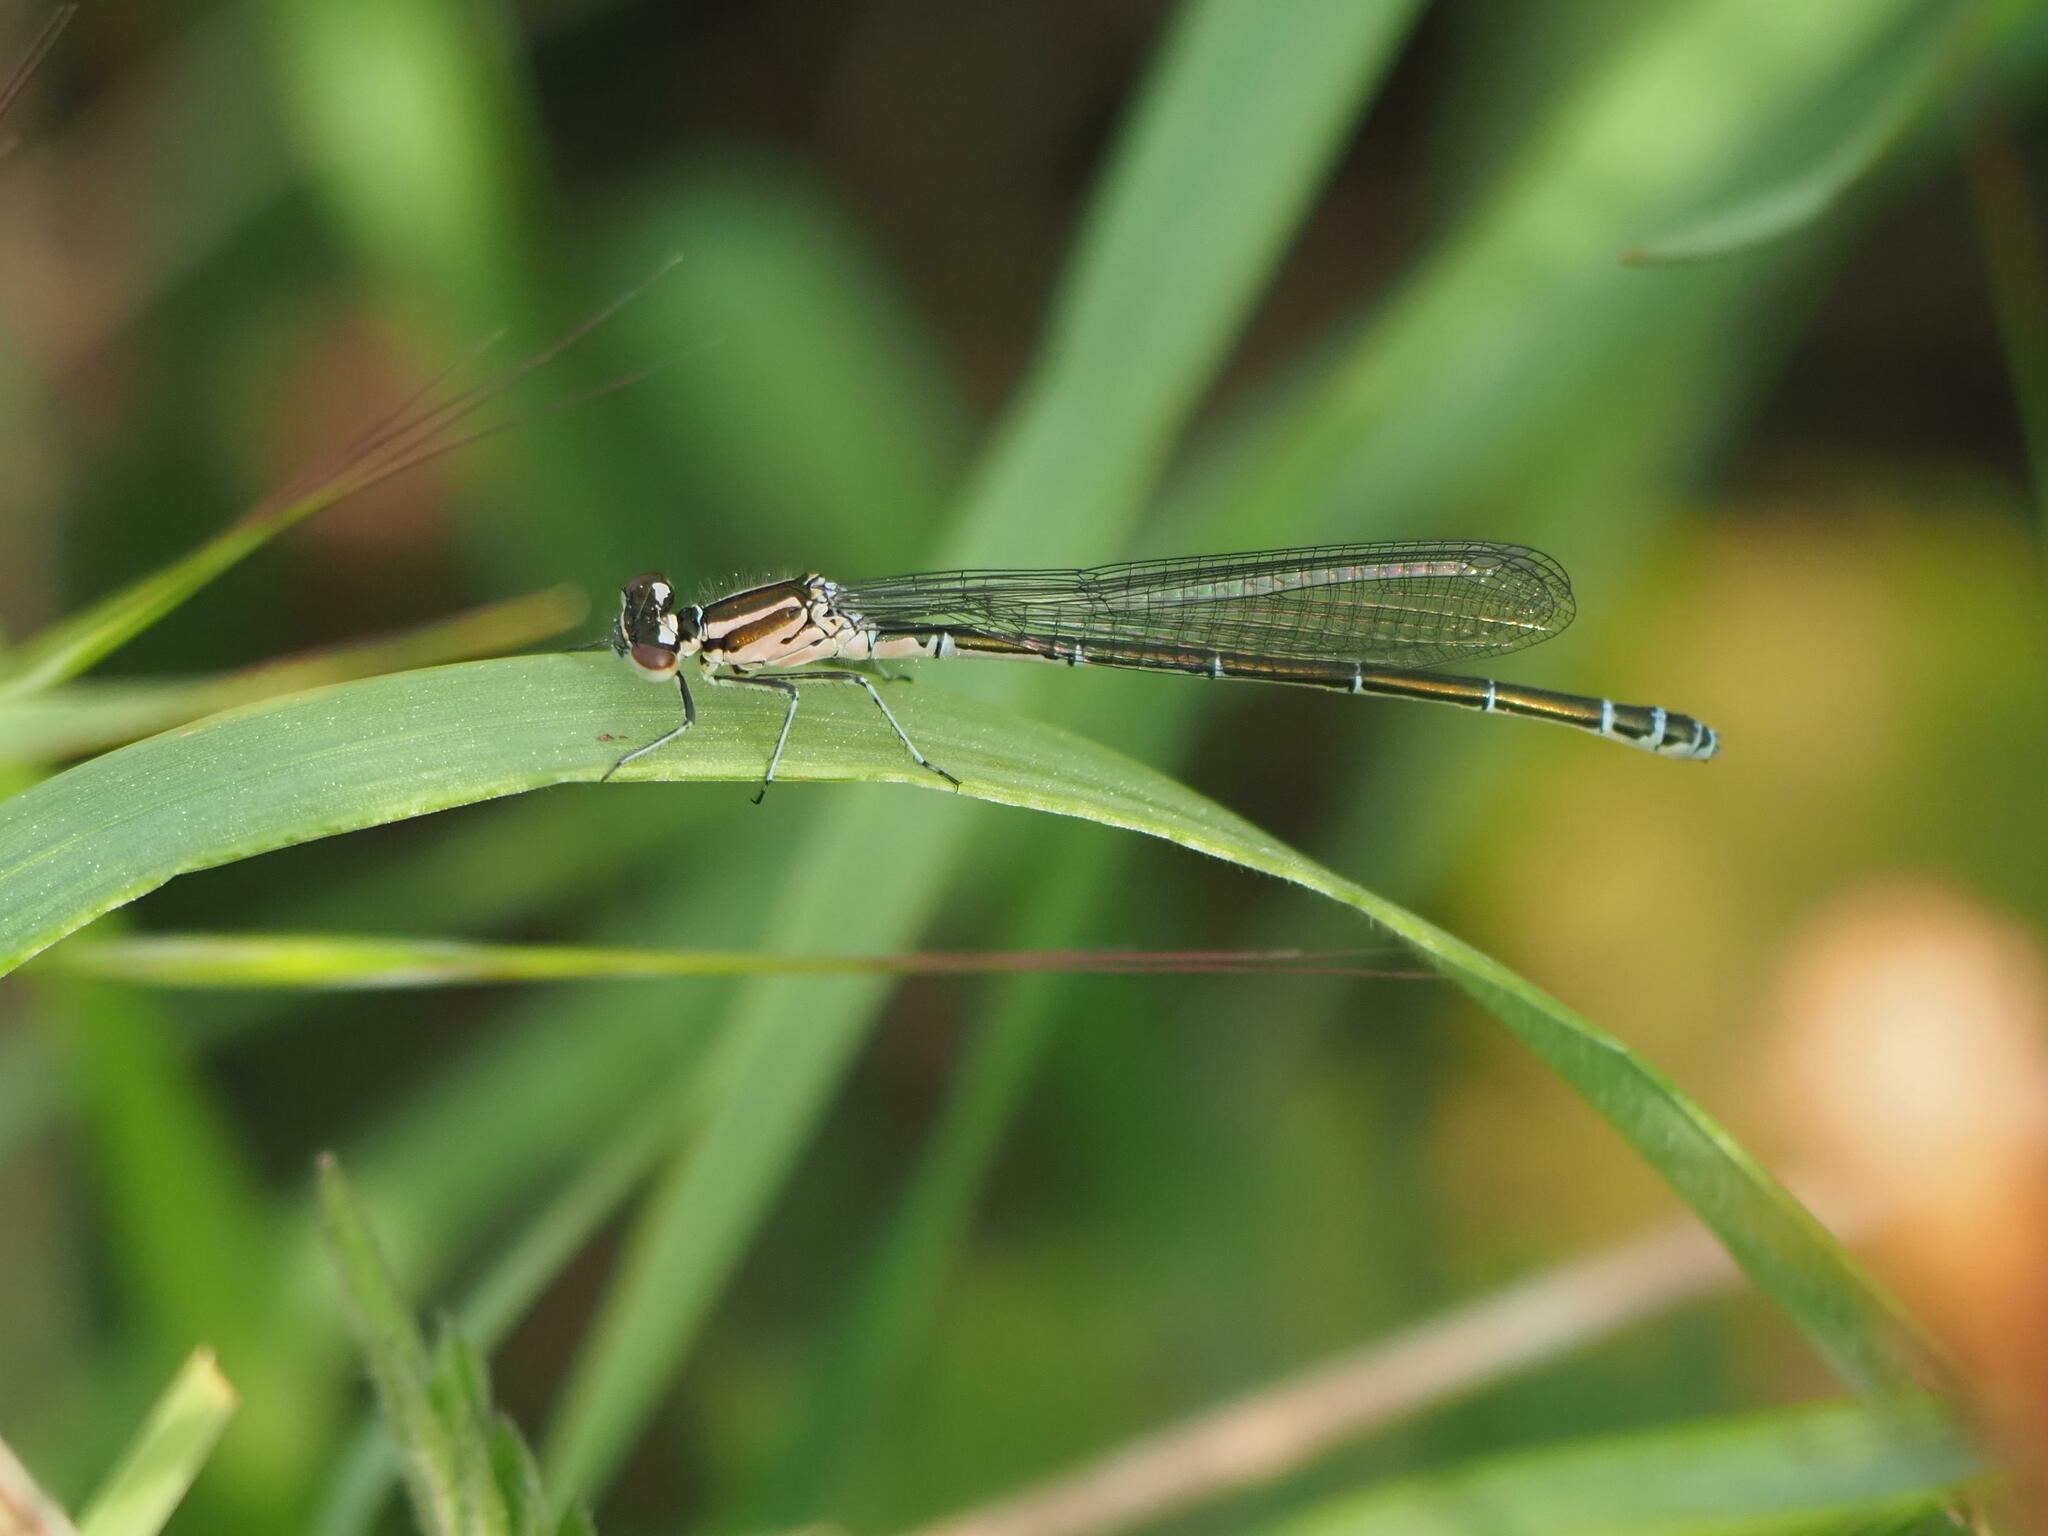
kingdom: Animalia
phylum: Arthropoda
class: Insecta
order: Odonata
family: Coenagrionidae
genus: Coenagrion
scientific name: Coenagrion puella
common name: Azure damselfly
